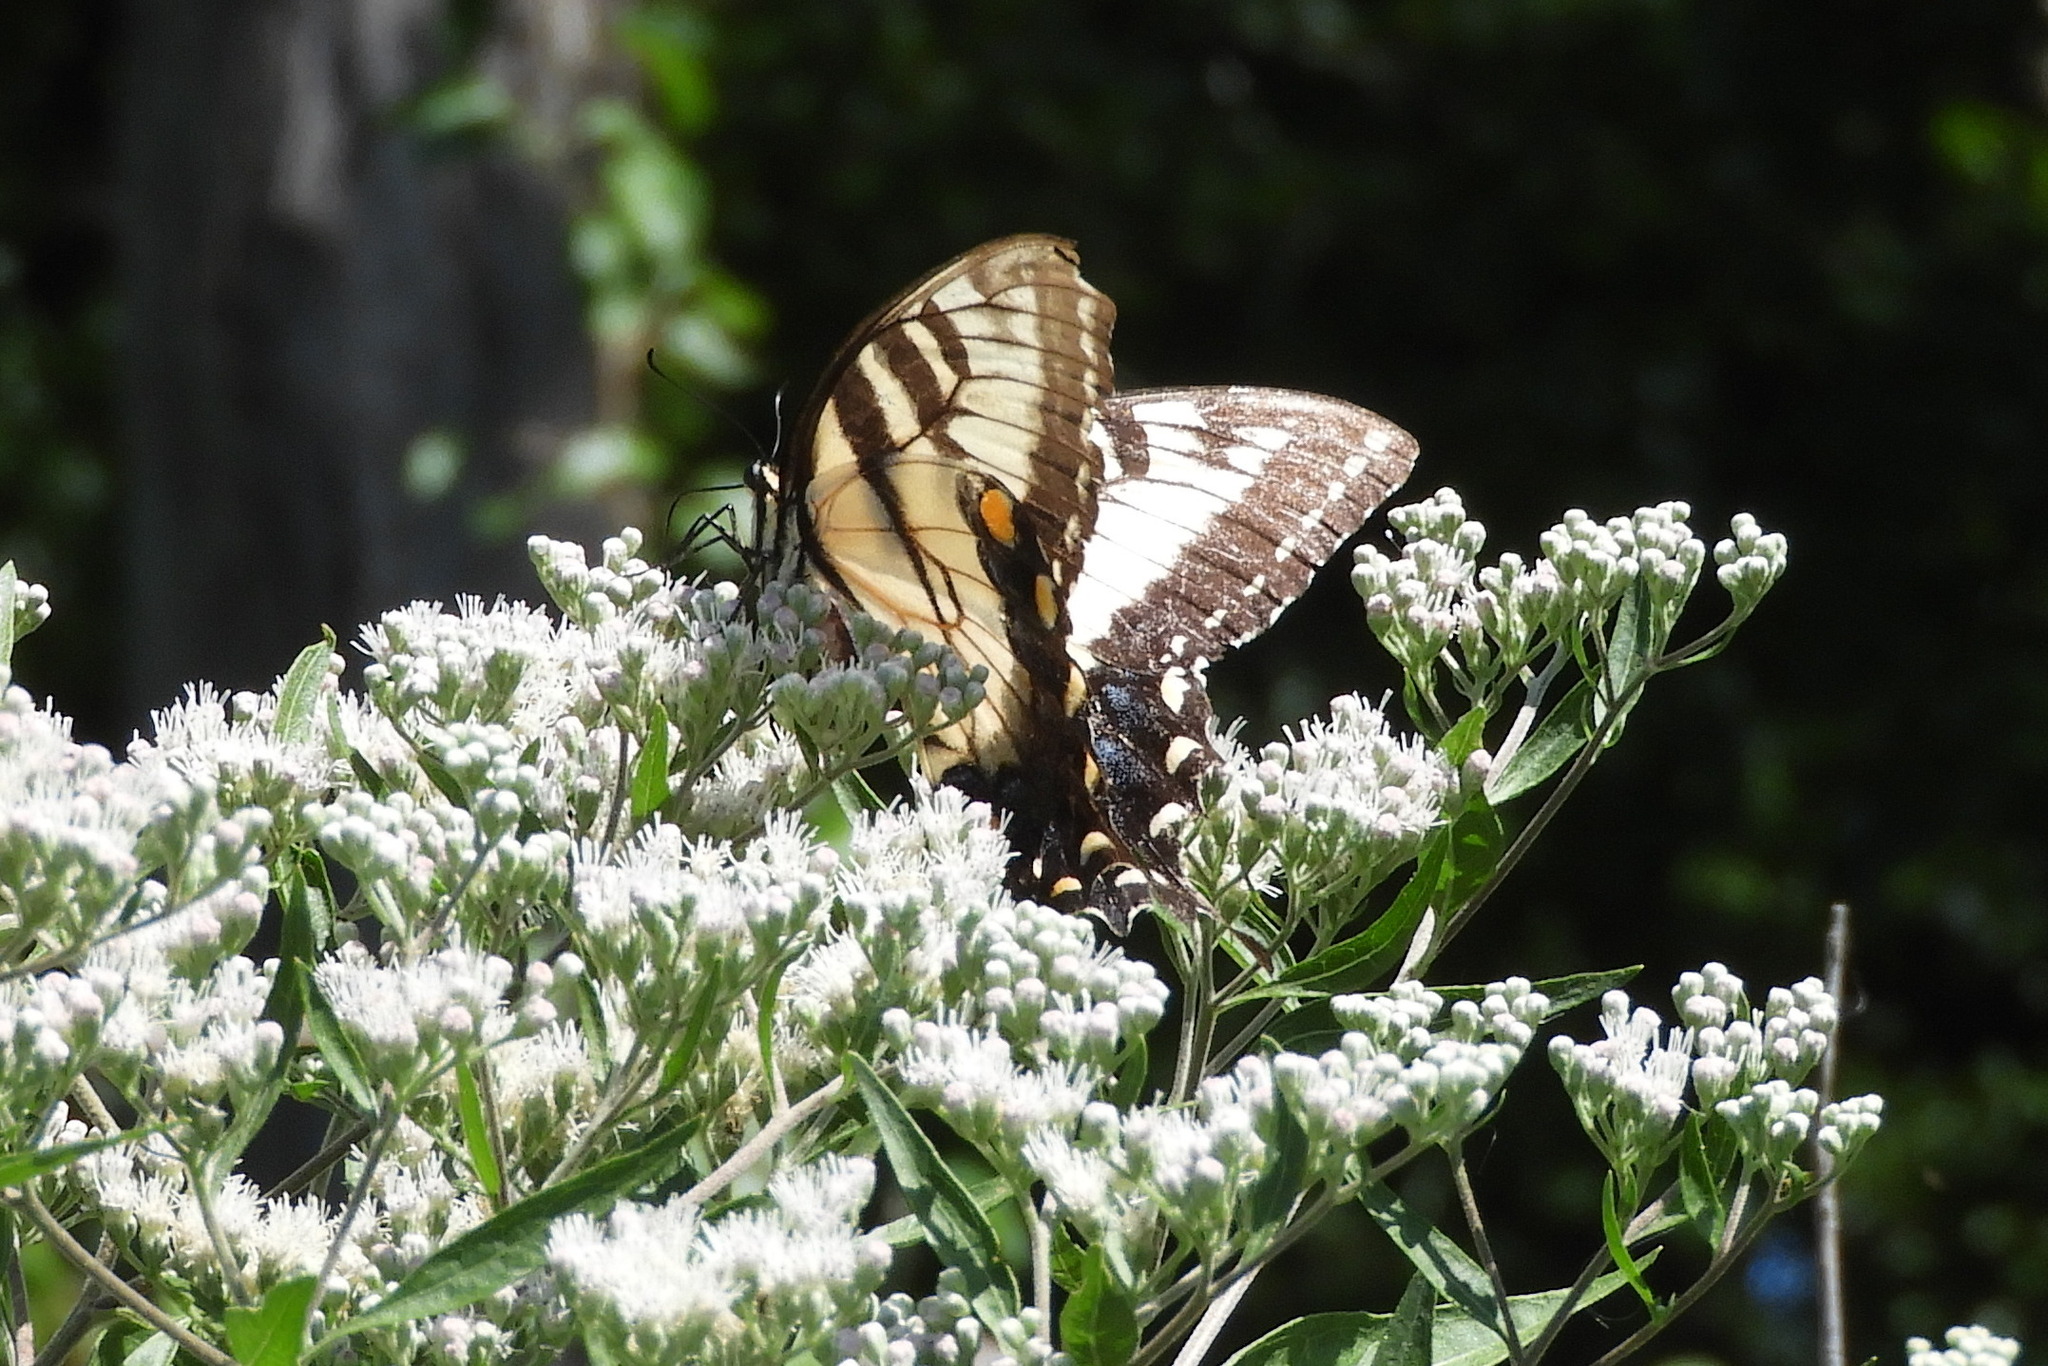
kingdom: Animalia
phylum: Arthropoda
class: Insecta
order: Lepidoptera
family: Papilionidae
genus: Papilio
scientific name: Papilio glaucus
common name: Tiger swallowtail
